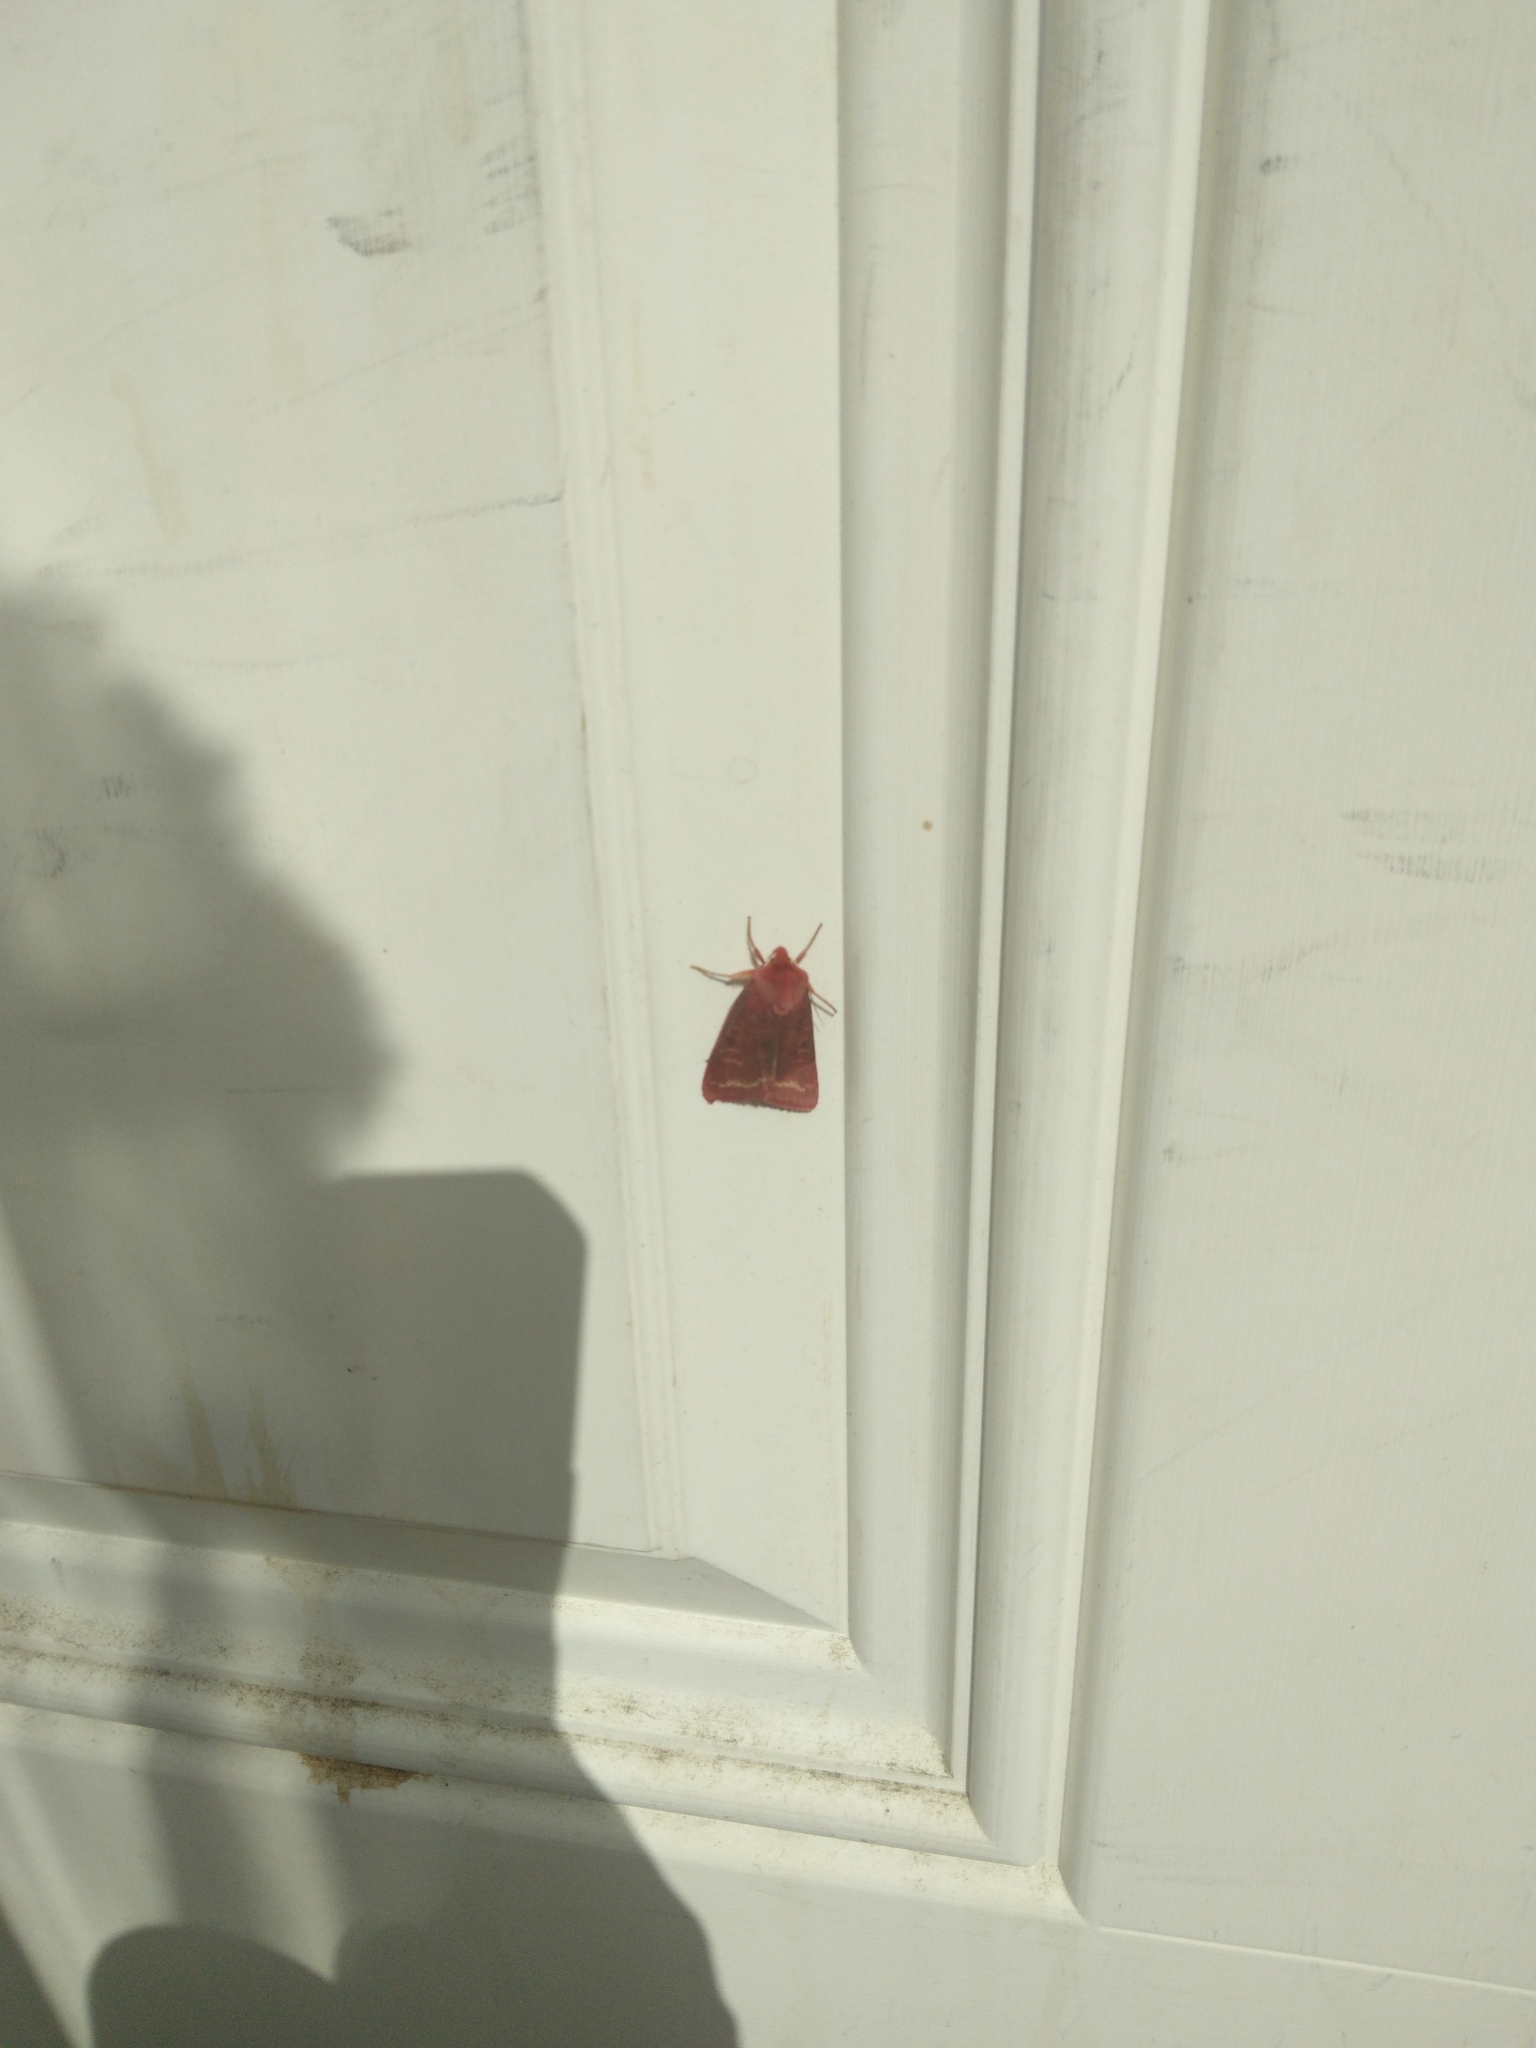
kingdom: Animalia
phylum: Arthropoda
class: Insecta
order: Lepidoptera
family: Noctuidae
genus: Psectraglaea
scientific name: Psectraglaea carnosa
